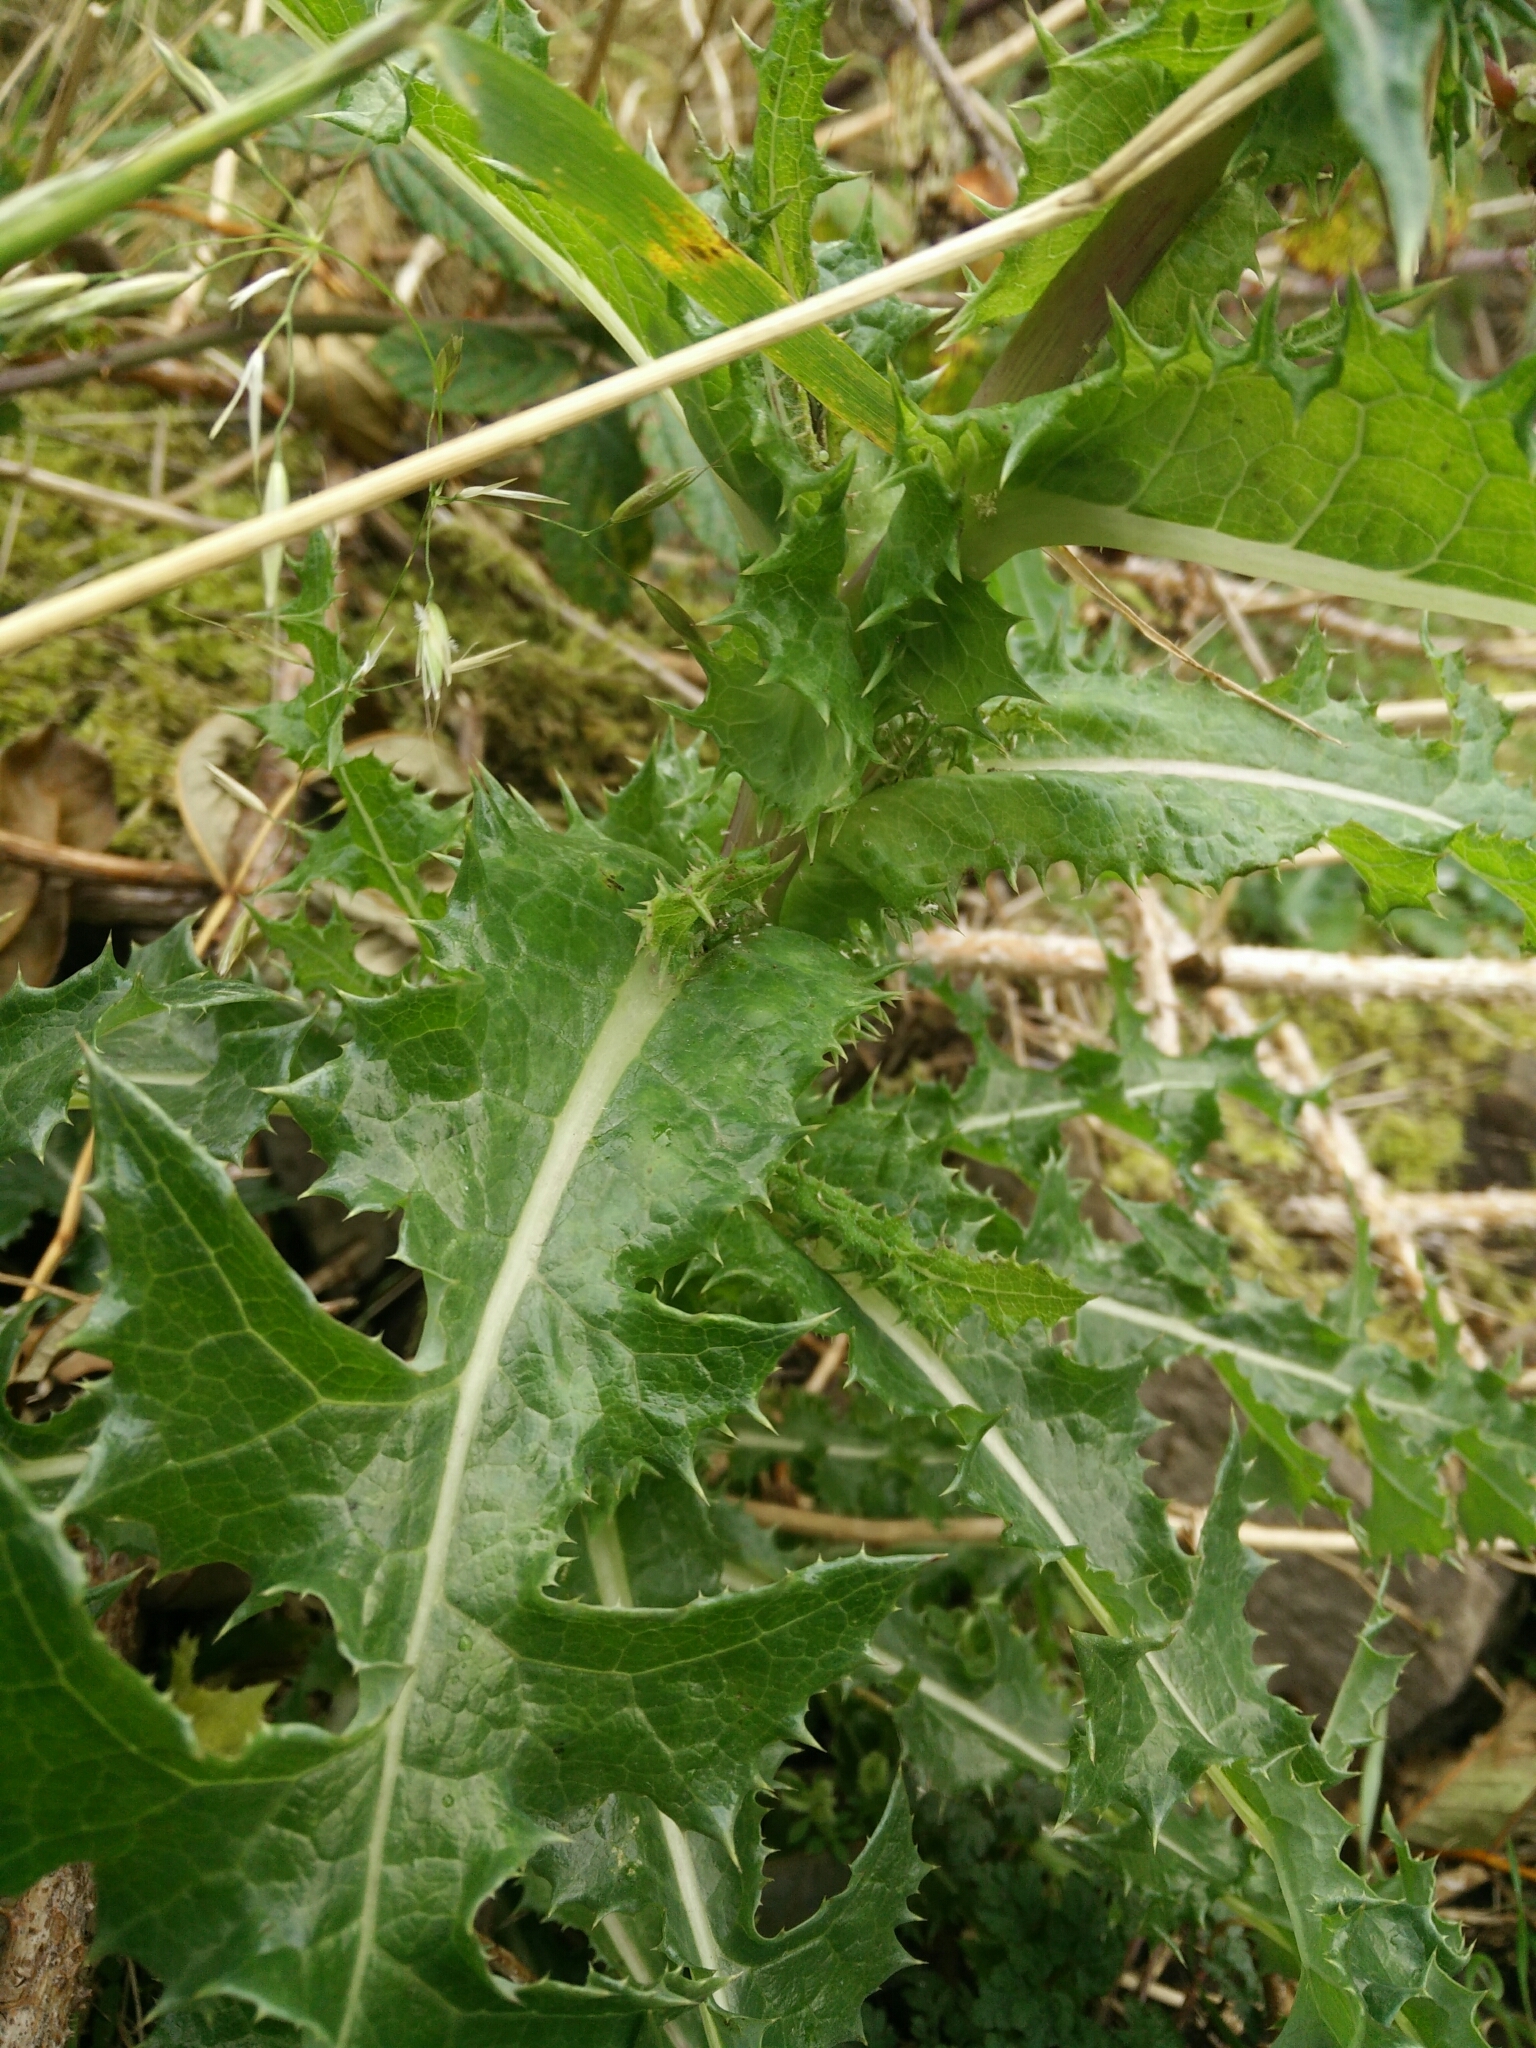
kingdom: Plantae
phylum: Tracheophyta
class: Magnoliopsida
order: Asterales
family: Asteraceae
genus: Sonchus
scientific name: Sonchus asper
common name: Prickly sow-thistle
